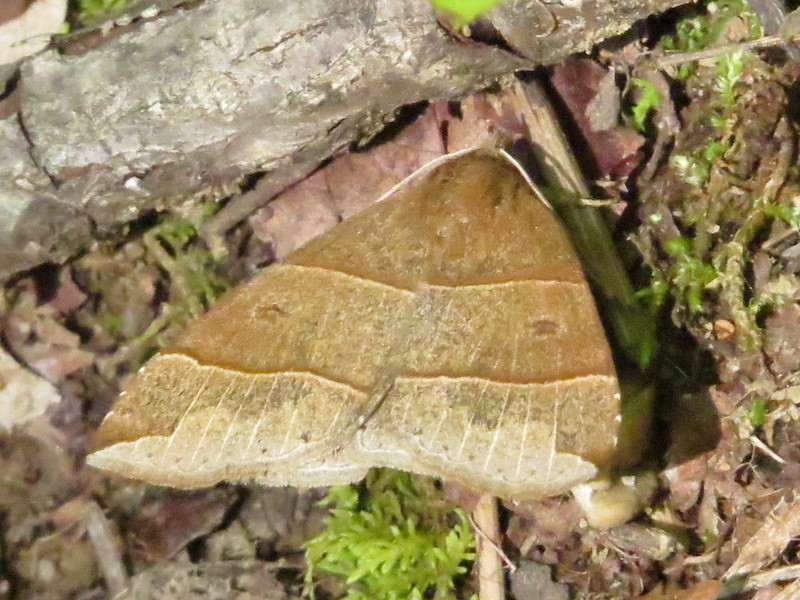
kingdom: Animalia
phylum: Arthropoda
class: Insecta
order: Lepidoptera
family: Erebidae
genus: Parallelia
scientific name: Parallelia bistriaris
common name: Maple looper moth
